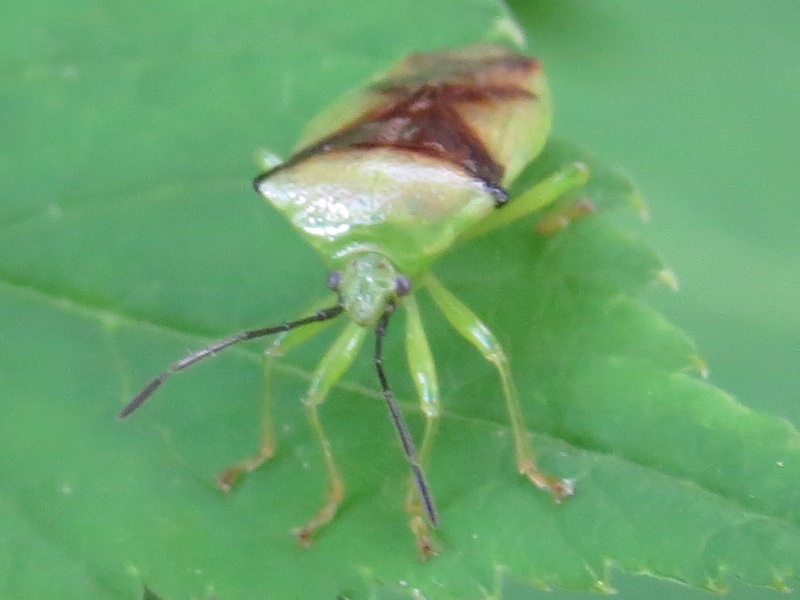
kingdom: Animalia
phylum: Arthropoda
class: Insecta
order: Hemiptera
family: Acanthosomatidae
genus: Elasmostethus
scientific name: Elasmostethus atricornis
